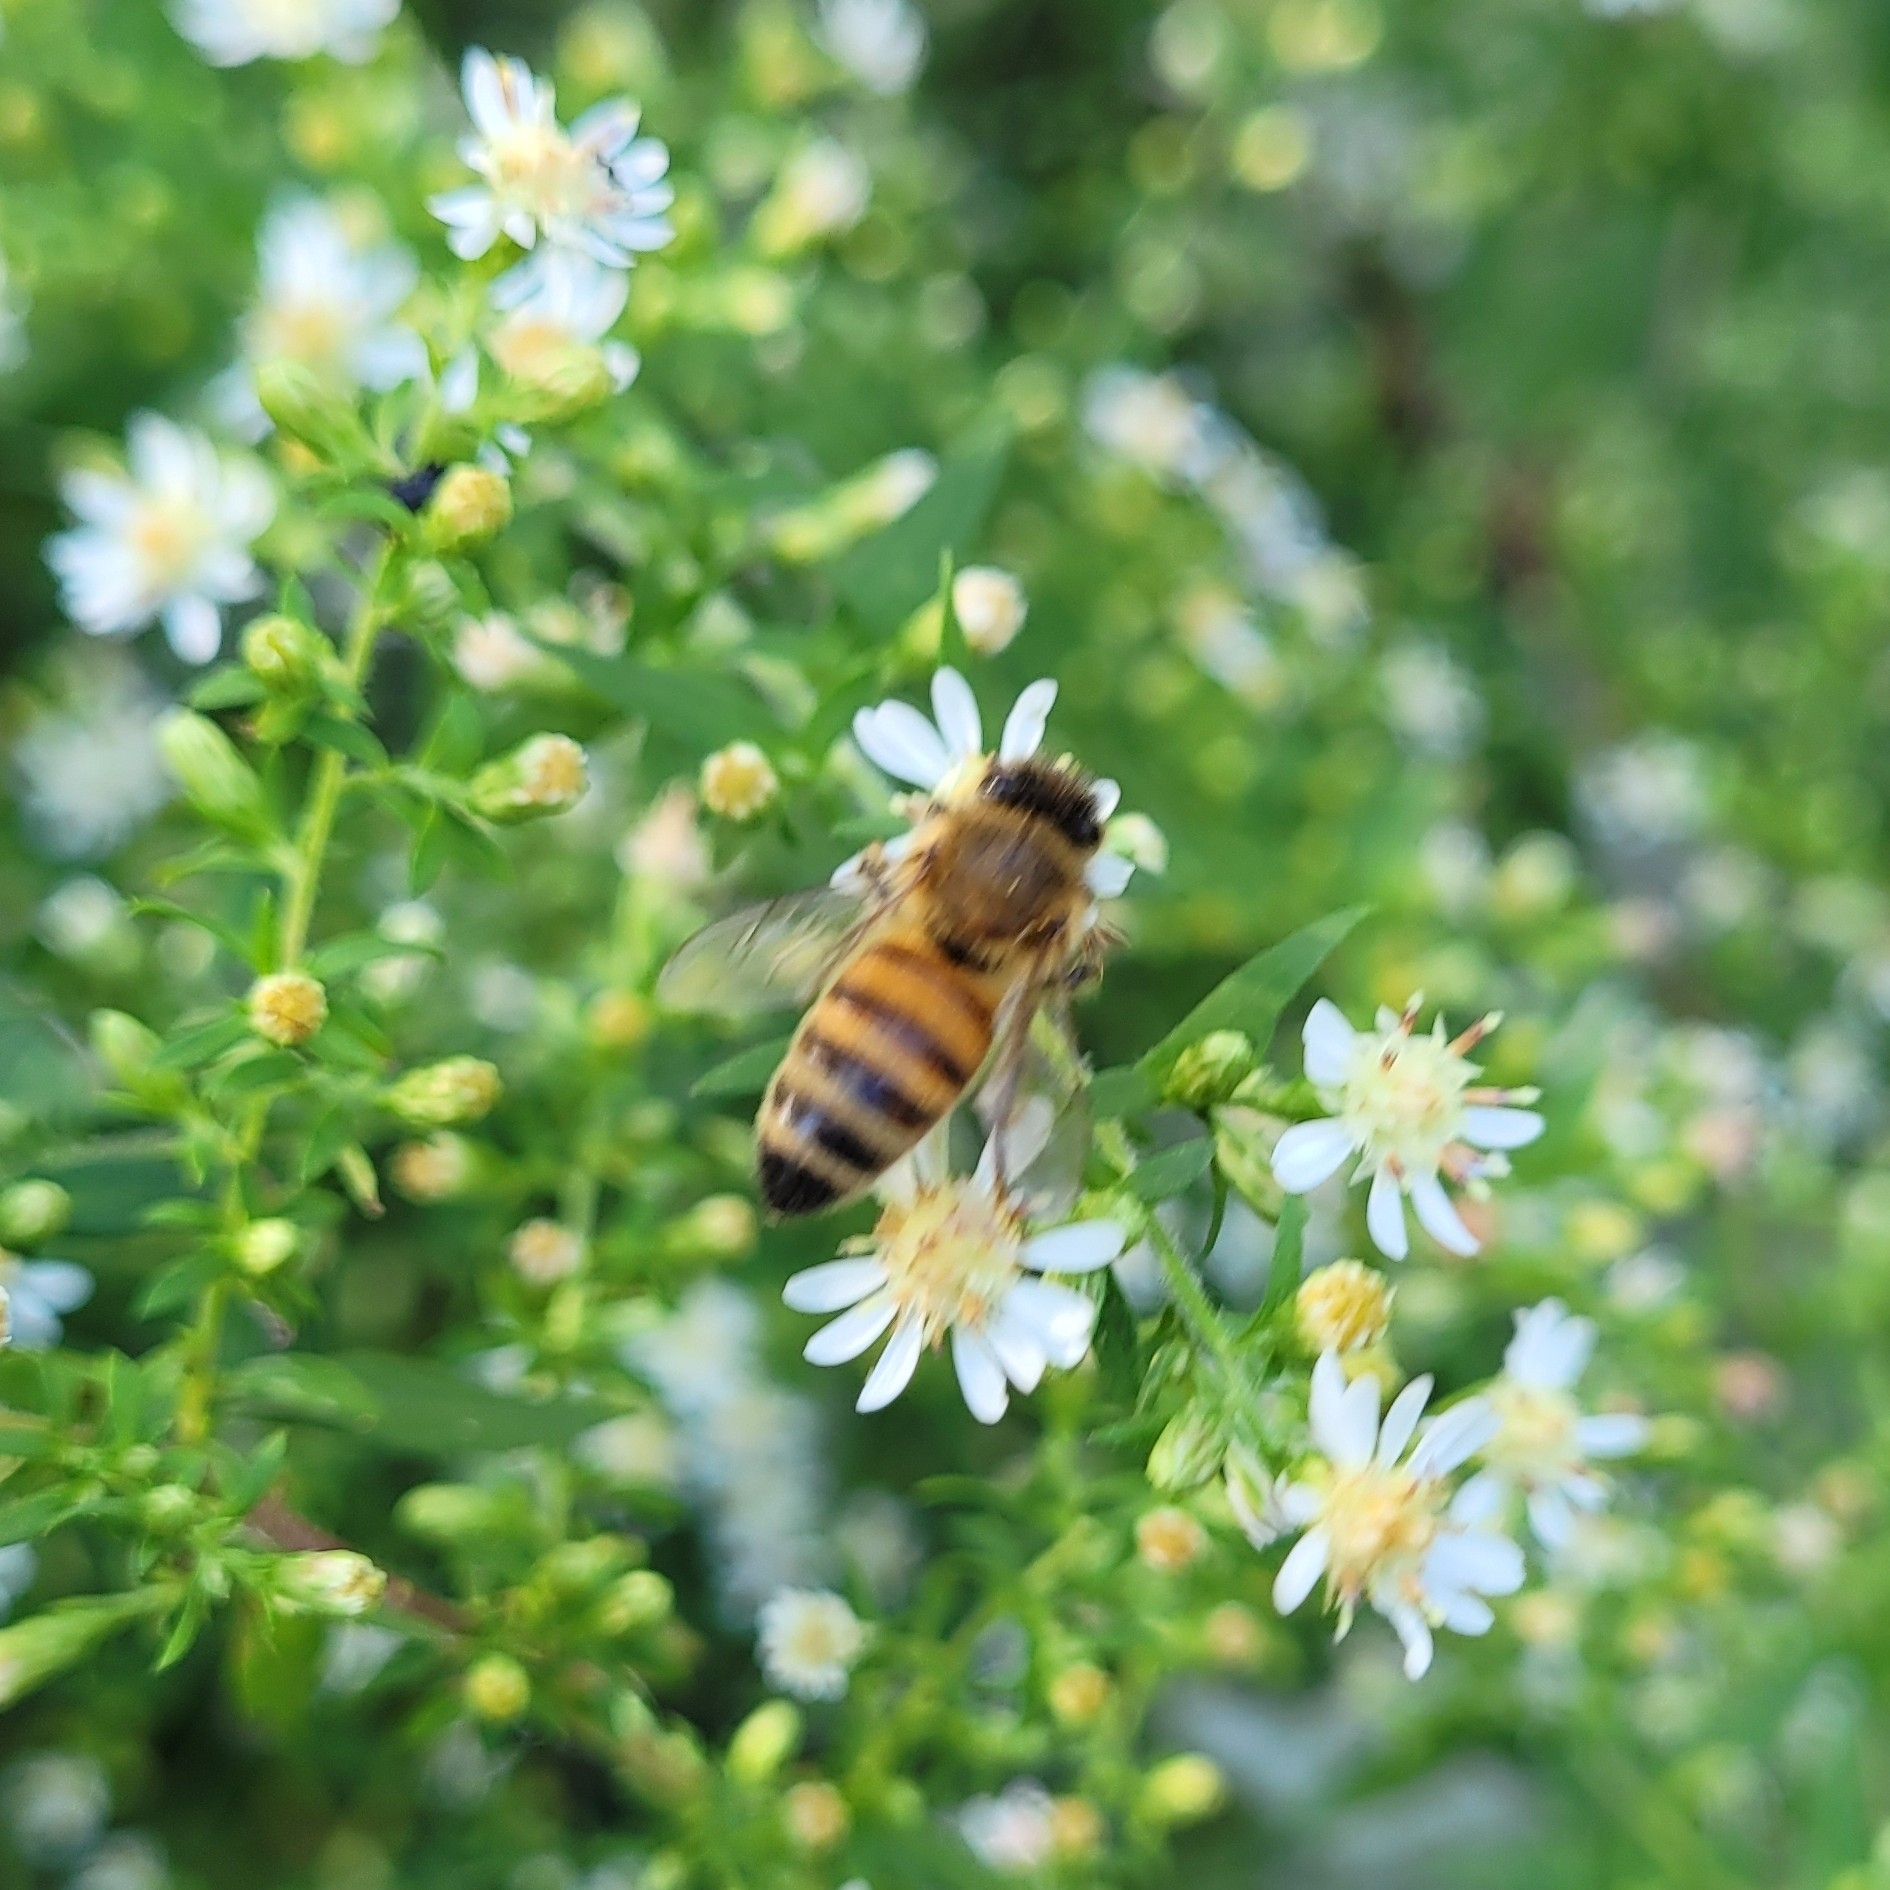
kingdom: Animalia
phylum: Arthropoda
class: Insecta
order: Hymenoptera
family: Apidae
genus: Apis
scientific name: Apis mellifera
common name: Honey bee
